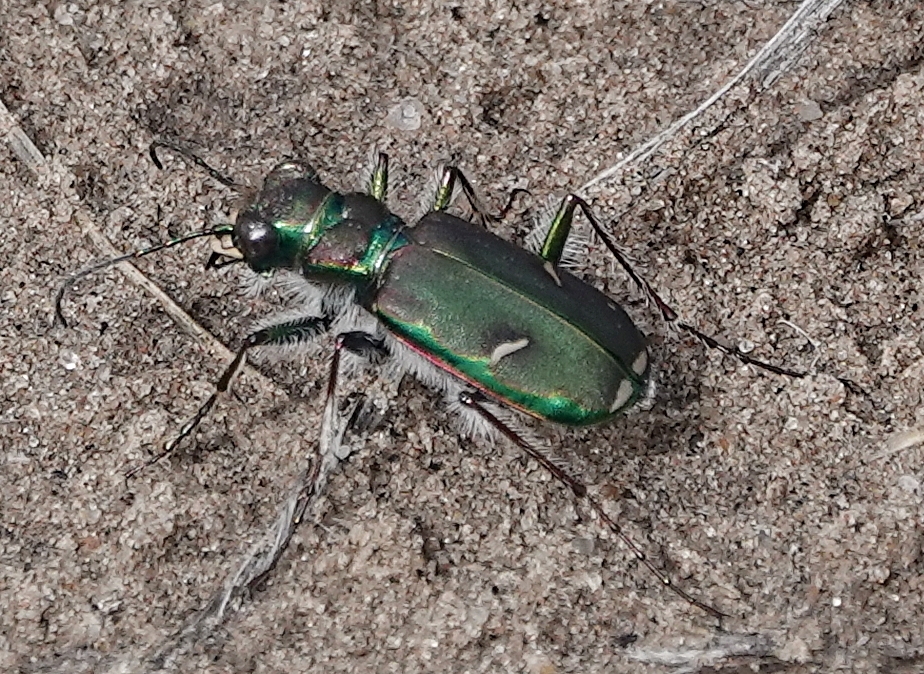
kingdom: Animalia
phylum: Arthropoda
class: Insecta
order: Coleoptera
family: Carabidae
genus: Cicindela
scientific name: Cicindela purpurea
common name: Cow path tiger beetle
